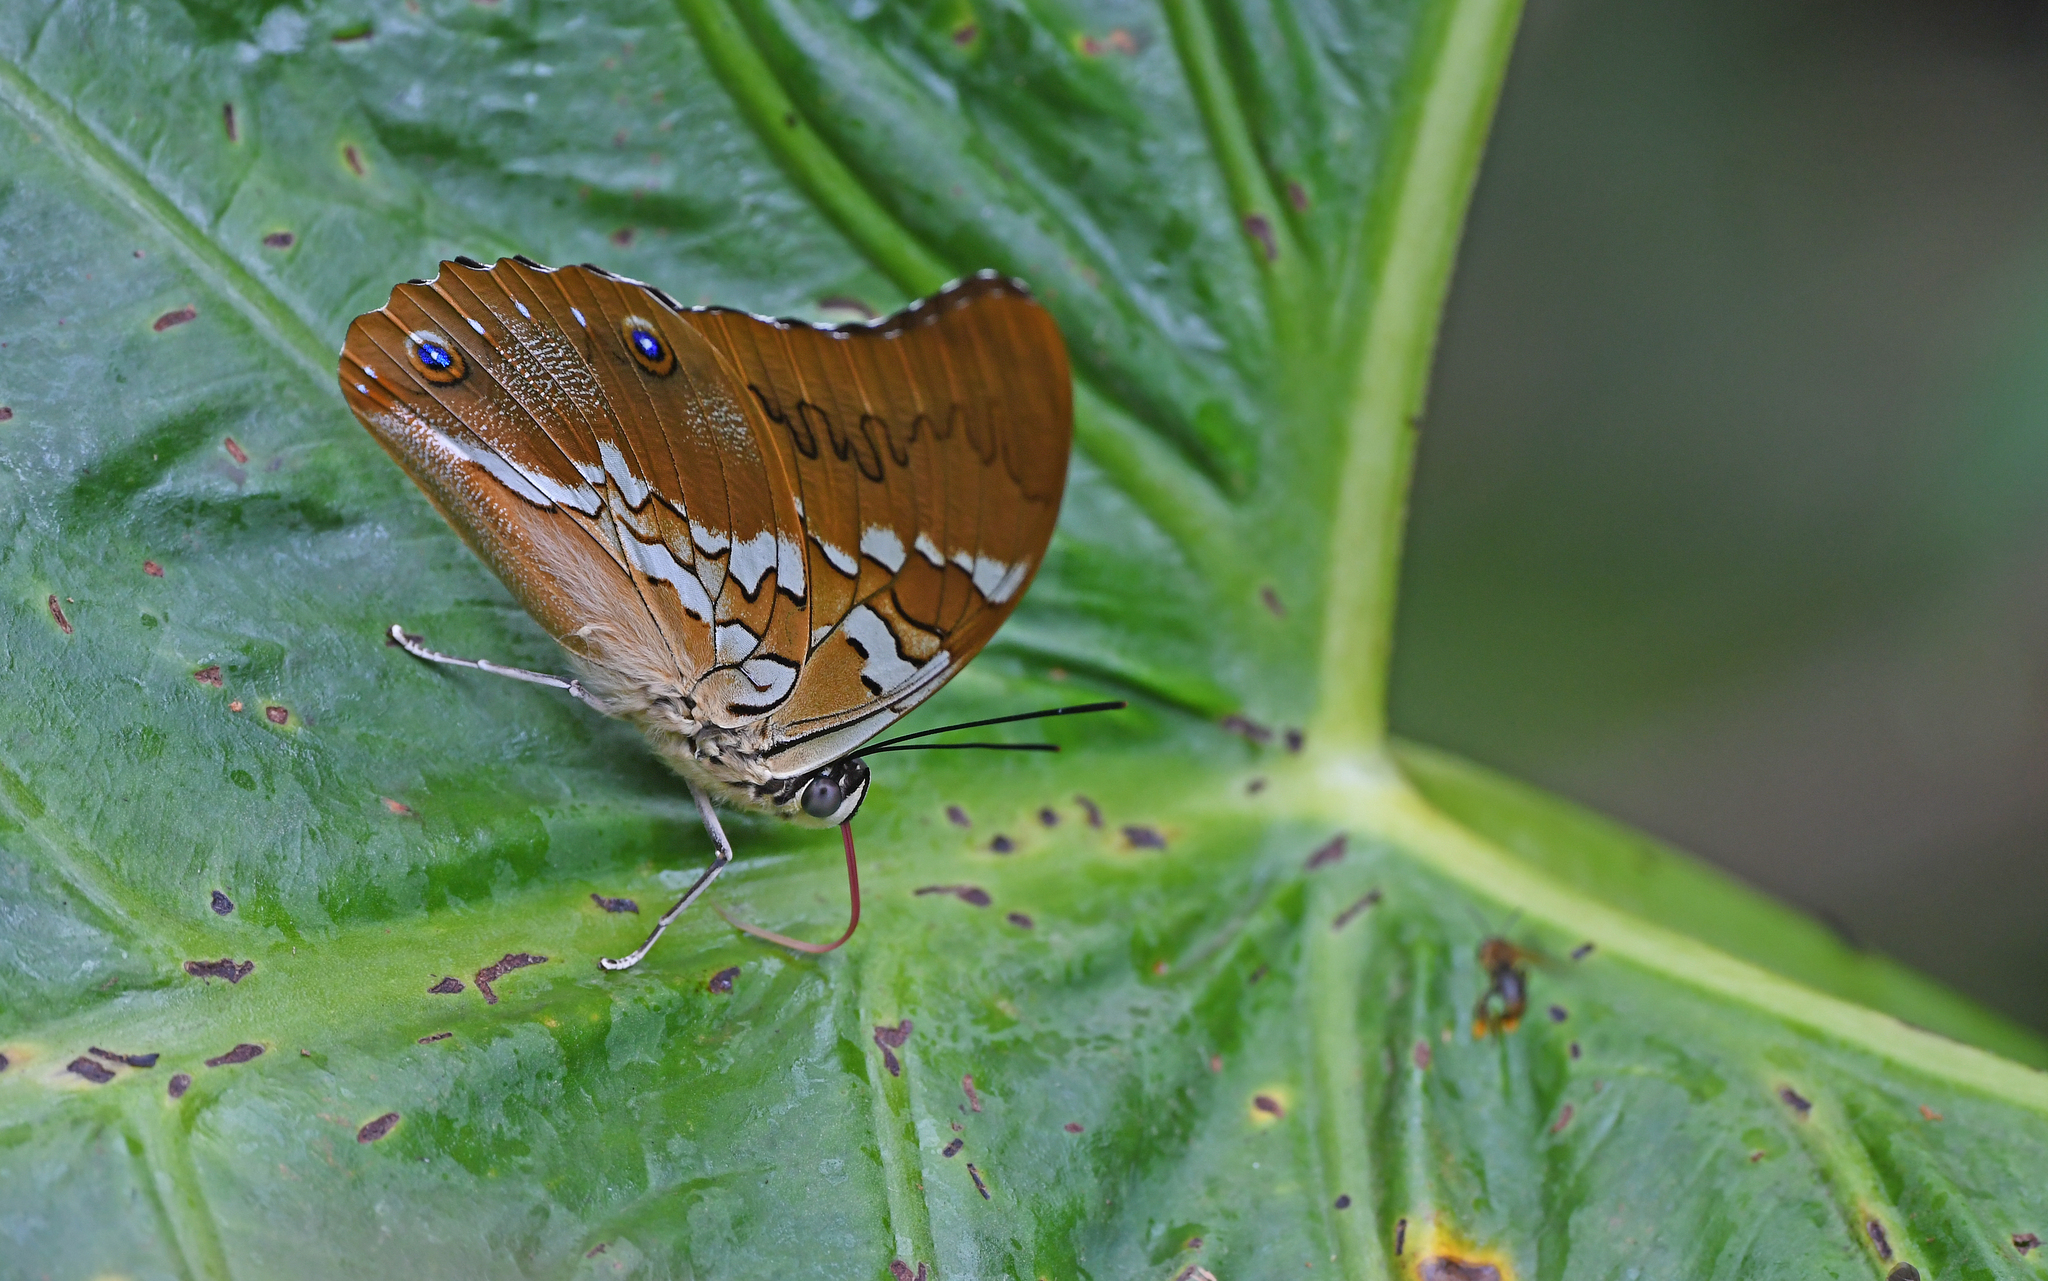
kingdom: Animalia
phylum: Arthropoda
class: Insecta
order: Lepidoptera
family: Nymphalidae
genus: Prepona
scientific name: Prepona deiphile
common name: Orange-spotted prepona
